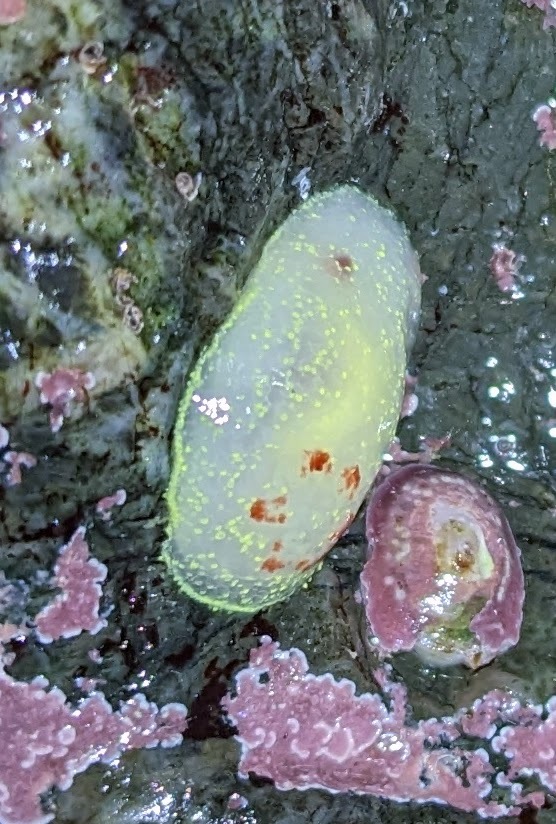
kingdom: Animalia
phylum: Mollusca
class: Gastropoda
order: Nudibranchia
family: Onchidorididae
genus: Acanthodoris
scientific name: Acanthodoris nanaimoensis
